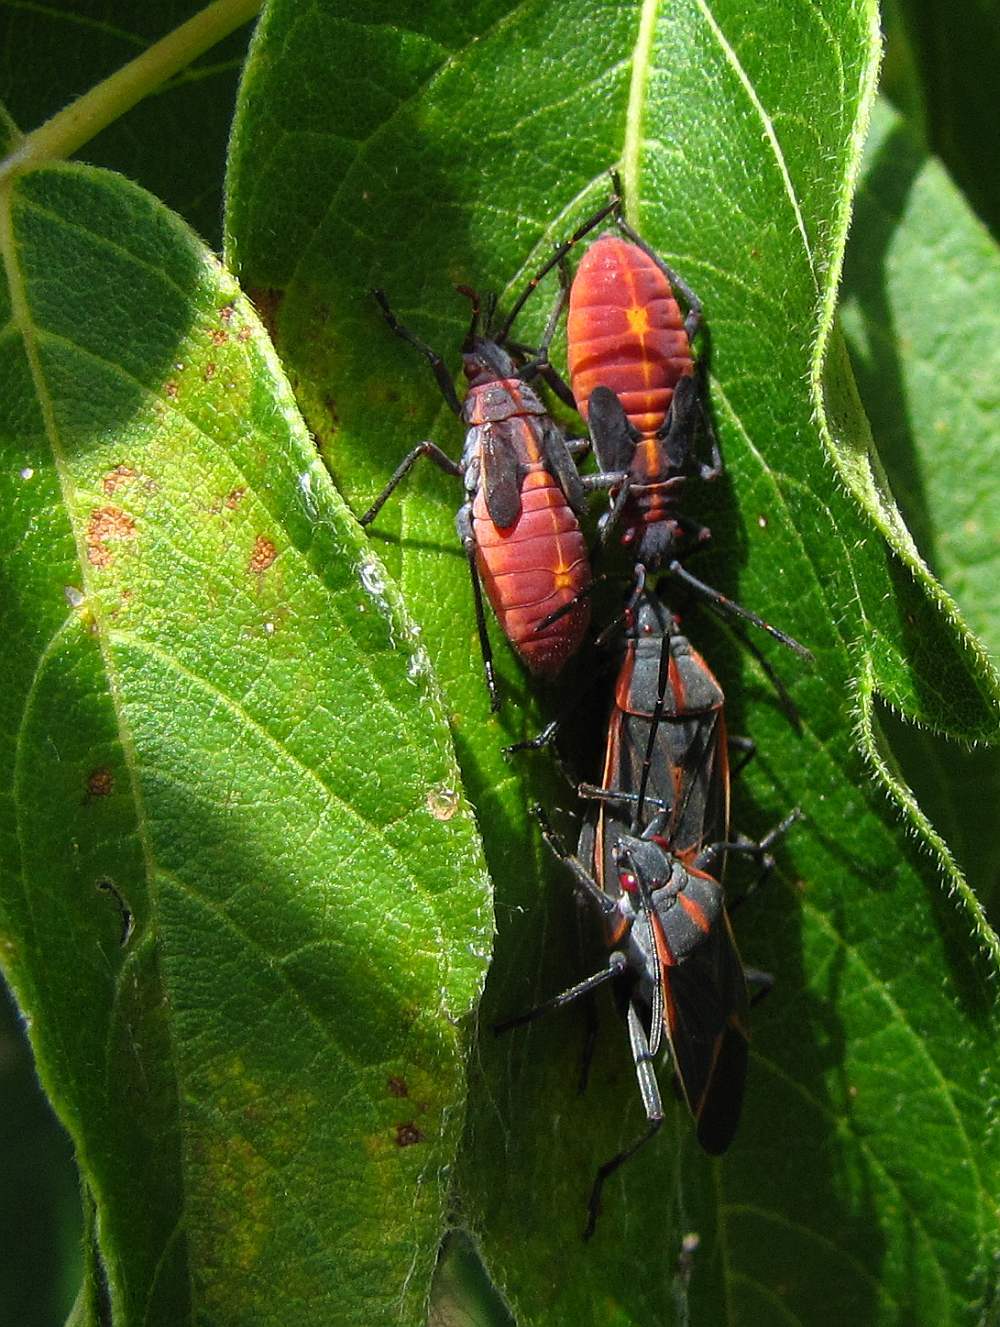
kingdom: Animalia
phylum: Arthropoda
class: Insecta
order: Hemiptera
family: Rhopalidae
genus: Boisea
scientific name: Boisea trivittata
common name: Boxelder bug
